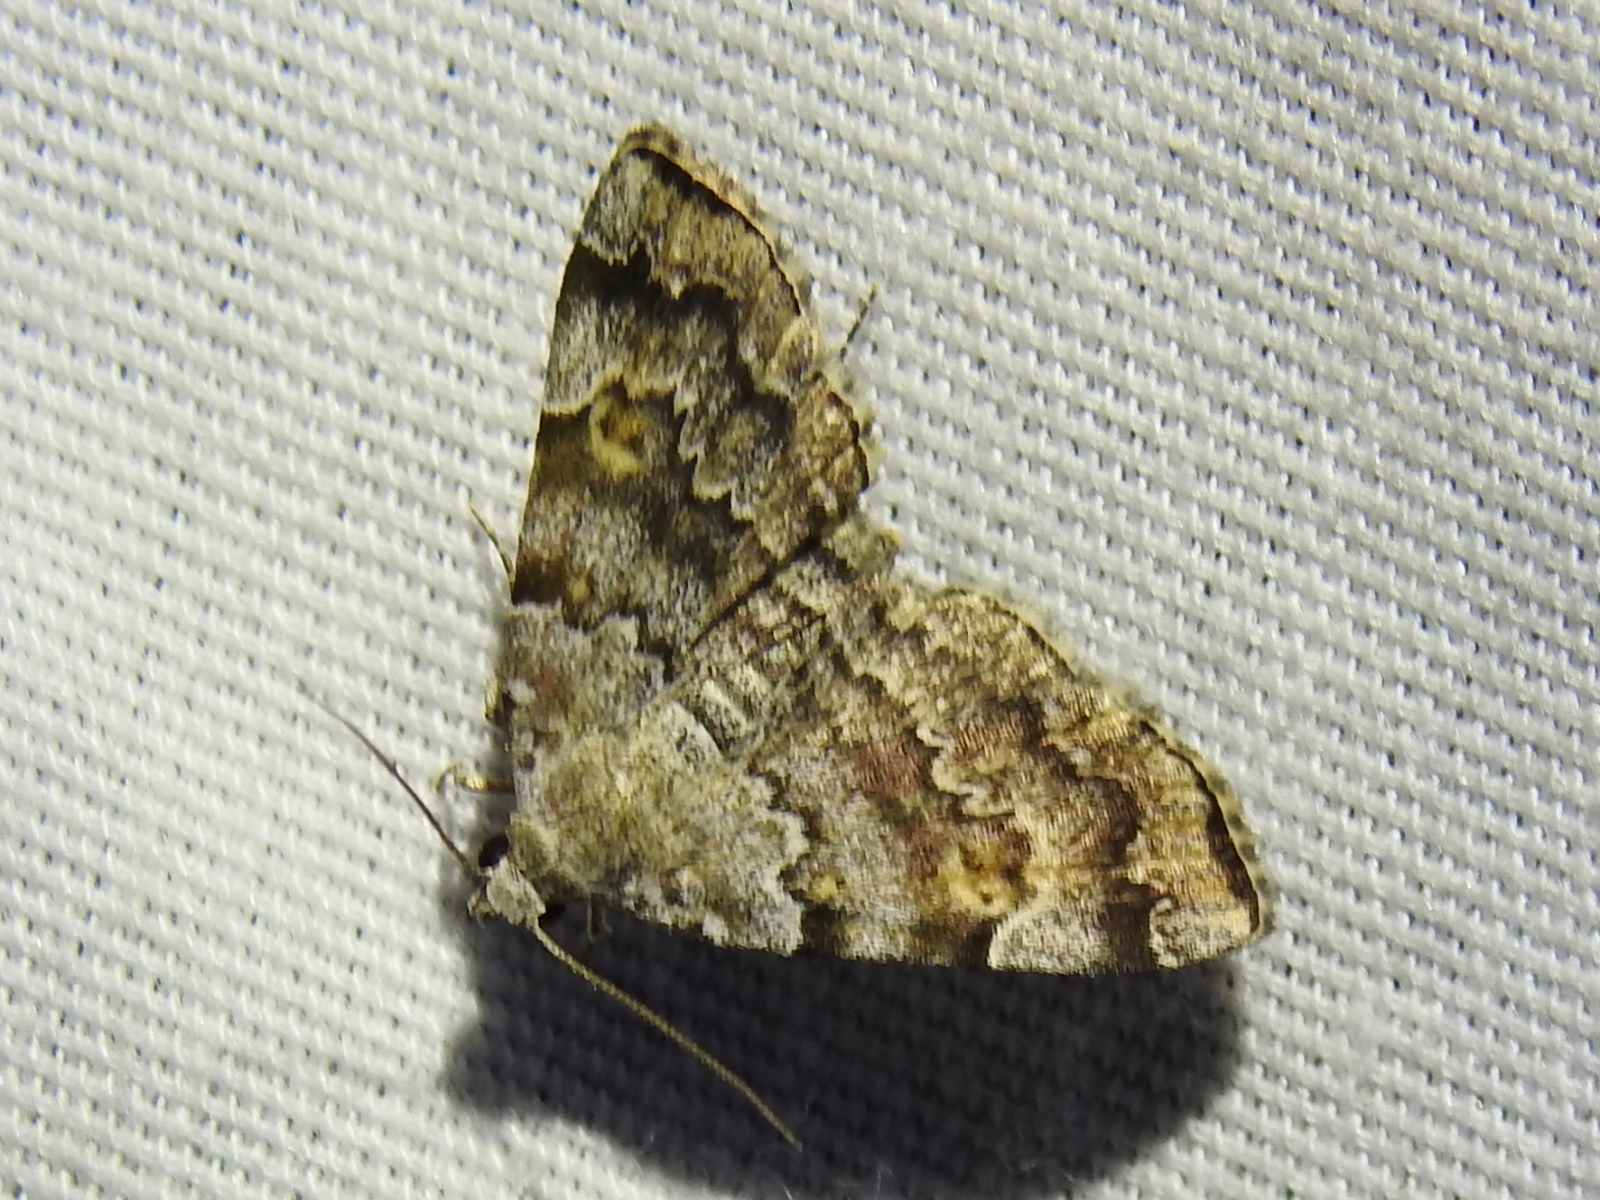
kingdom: Animalia
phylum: Arthropoda
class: Insecta
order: Lepidoptera
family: Erebidae
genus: Idia
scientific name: Idia americalis
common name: American idia moth
